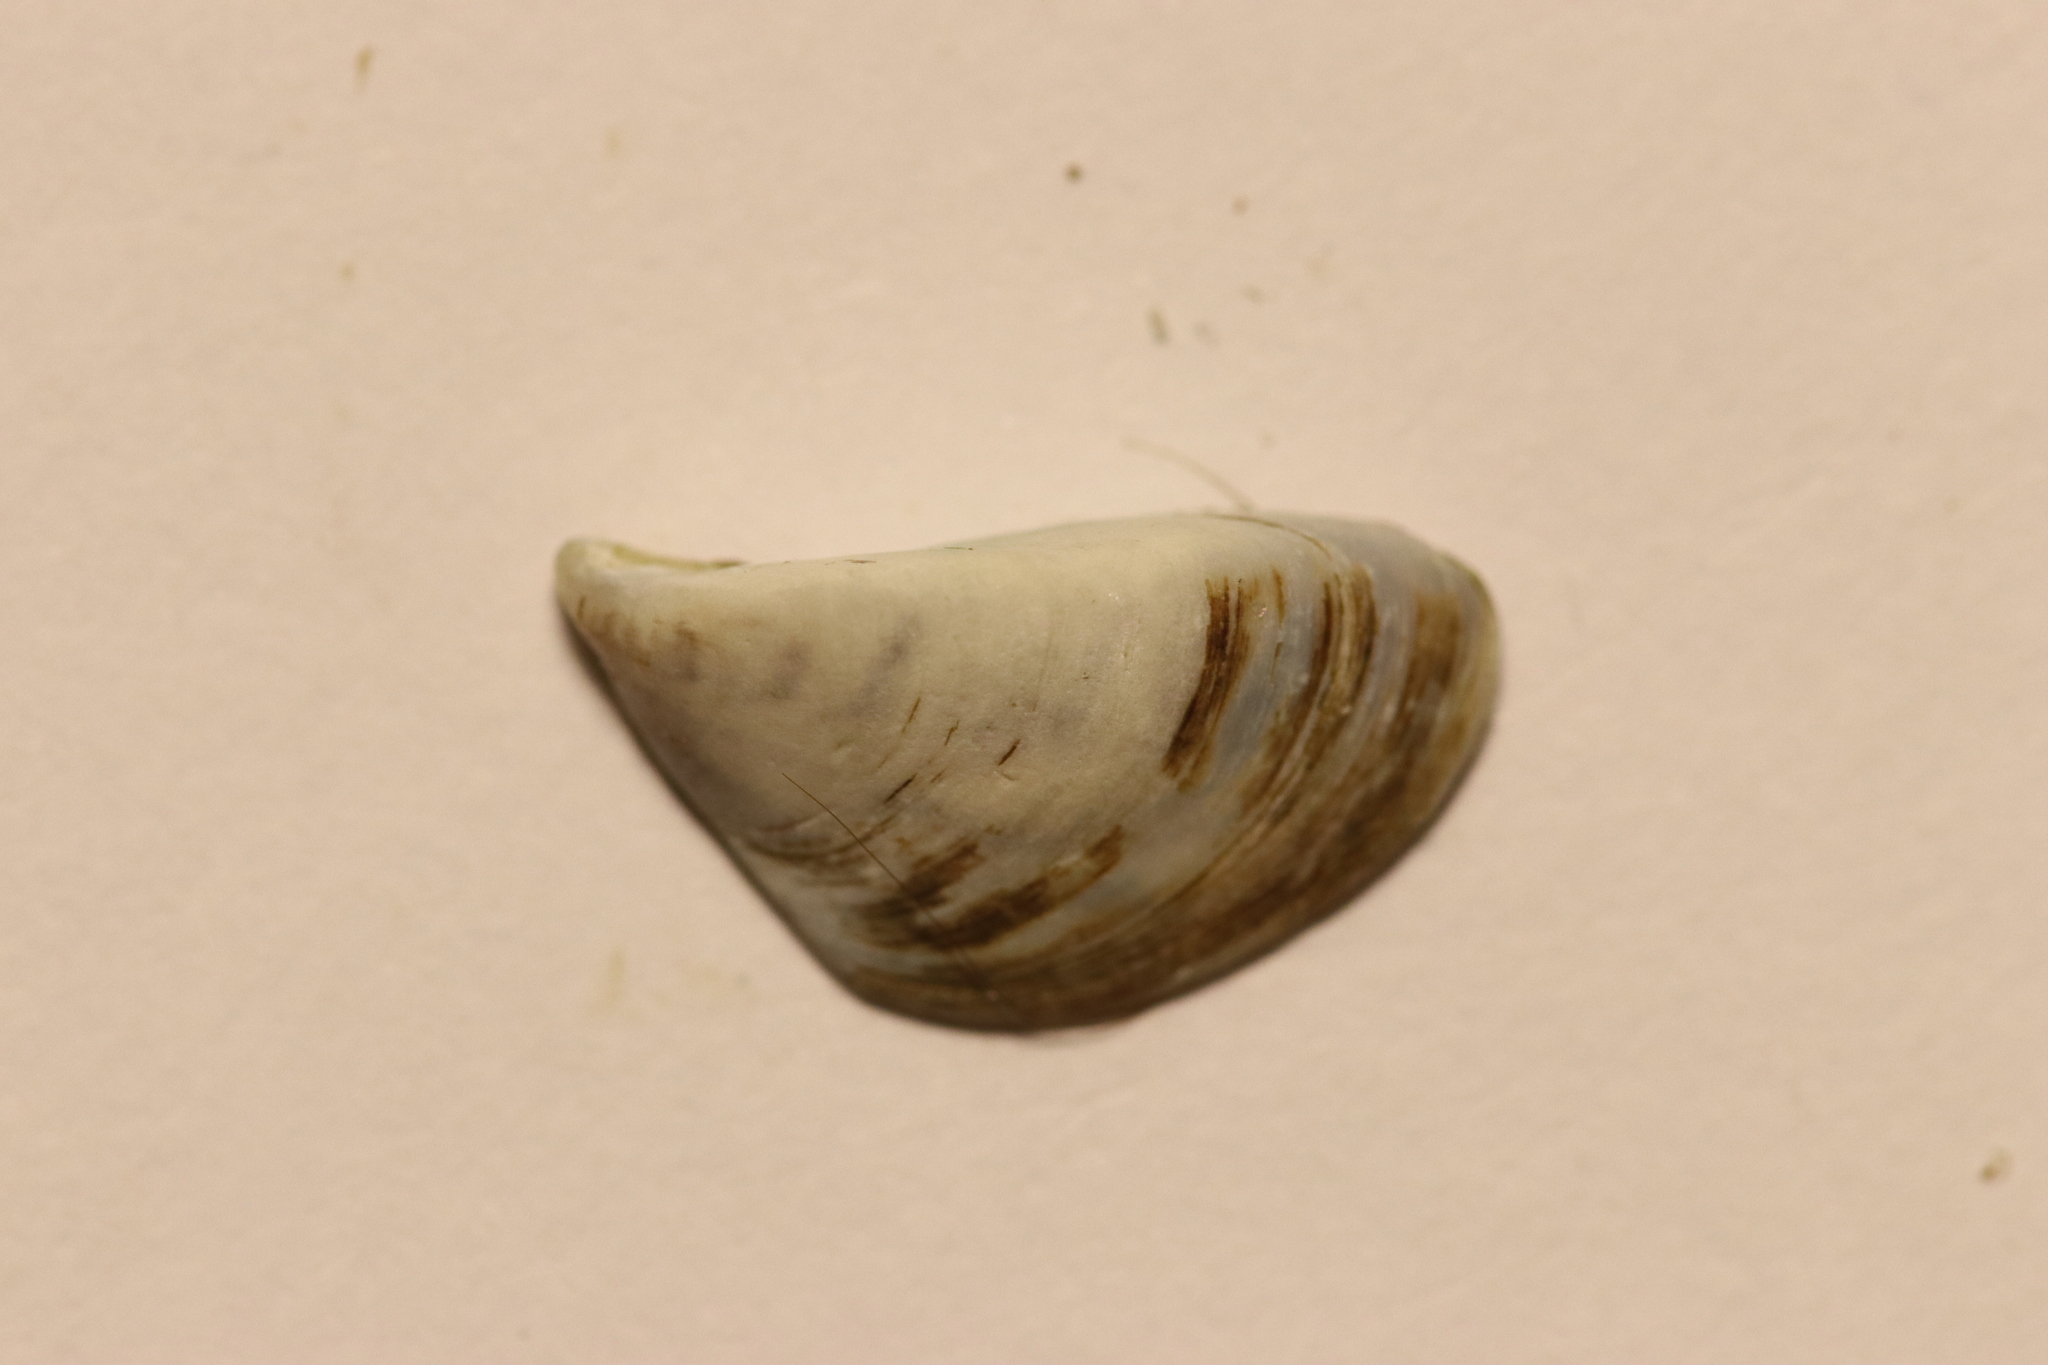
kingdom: Animalia
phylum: Mollusca
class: Bivalvia
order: Myida
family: Dreissenidae
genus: Dreissena
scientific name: Dreissena polymorpha
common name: Zebra mussel
